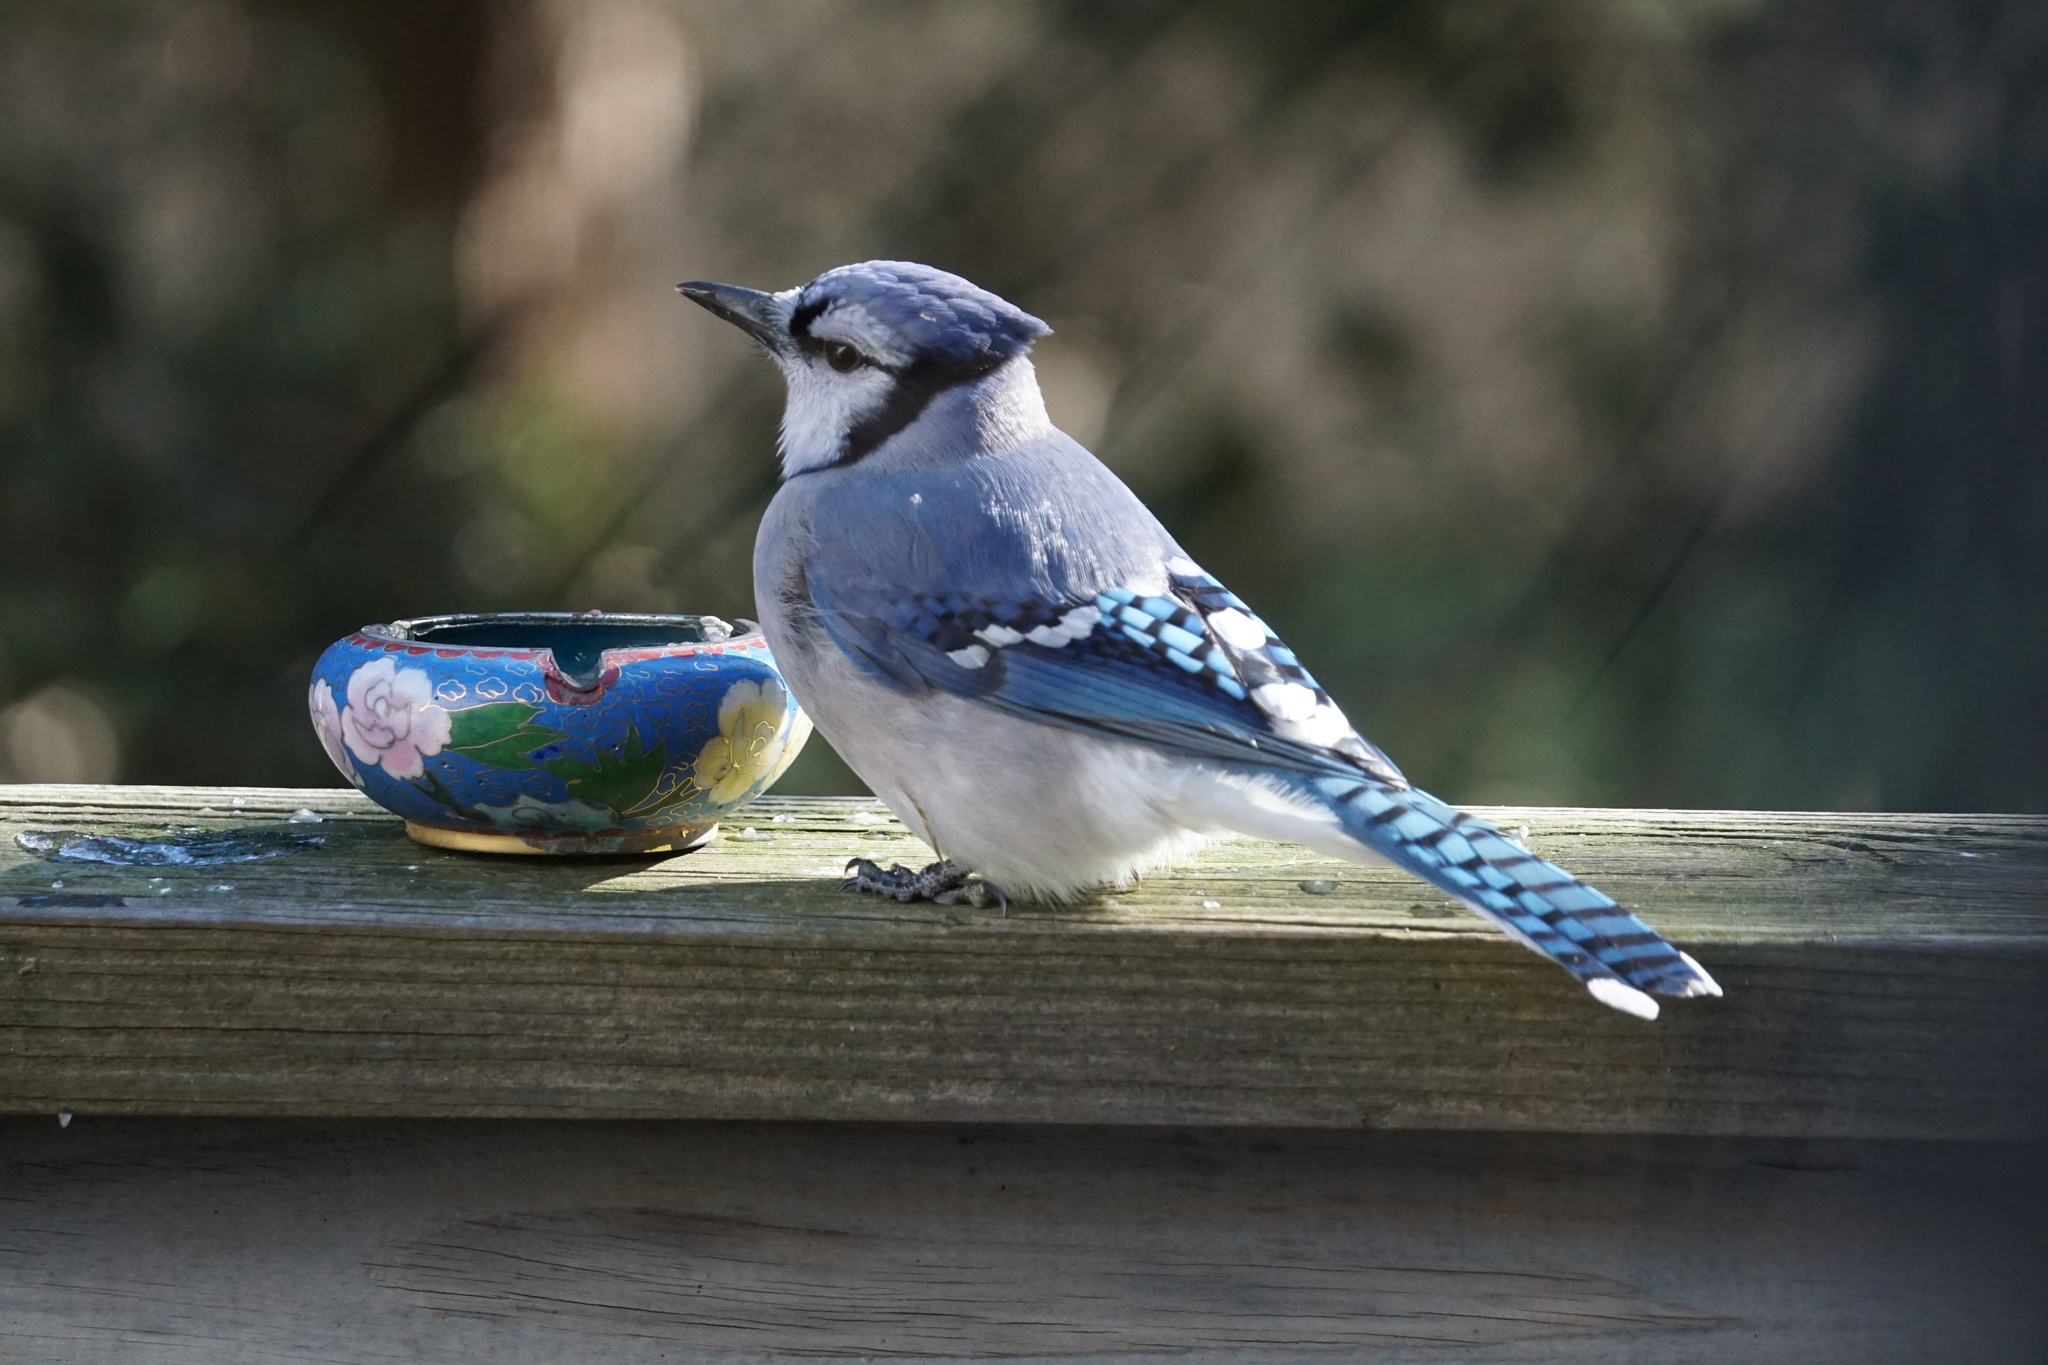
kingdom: Animalia
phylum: Chordata
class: Aves
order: Passeriformes
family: Corvidae
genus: Cyanocitta
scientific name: Cyanocitta cristata
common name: Blue jay
